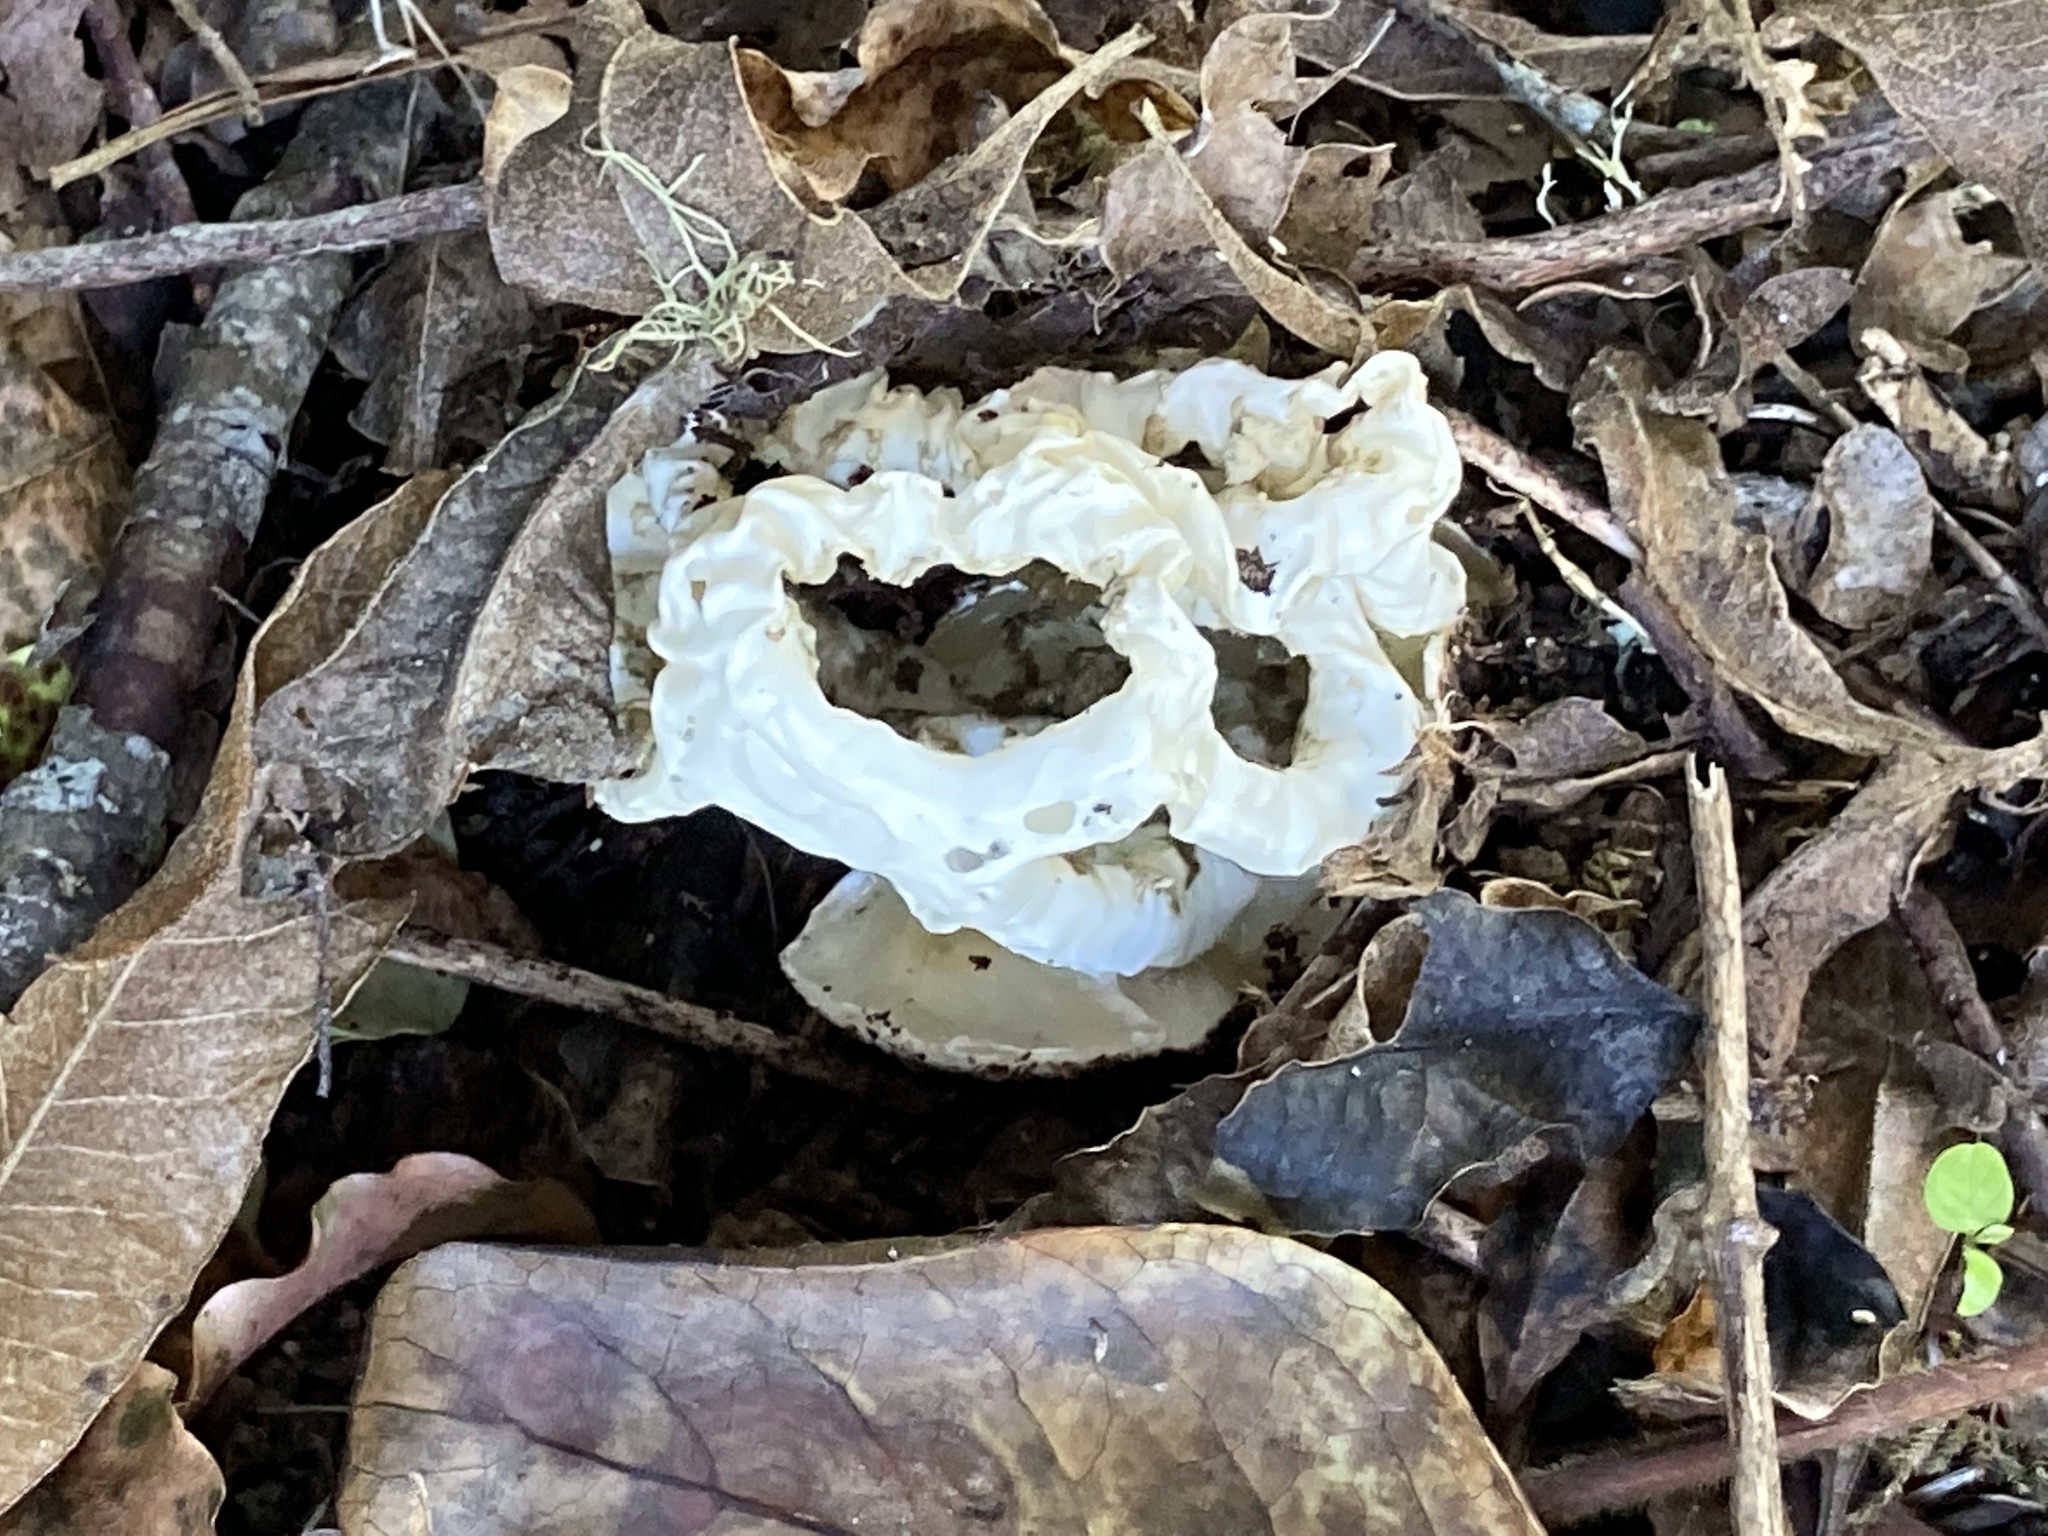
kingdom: Fungi
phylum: Basidiomycota
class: Agaricomycetes
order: Phallales
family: Phallaceae
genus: Ileodictyon
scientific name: Ileodictyon cibarium
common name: Basket fungus
